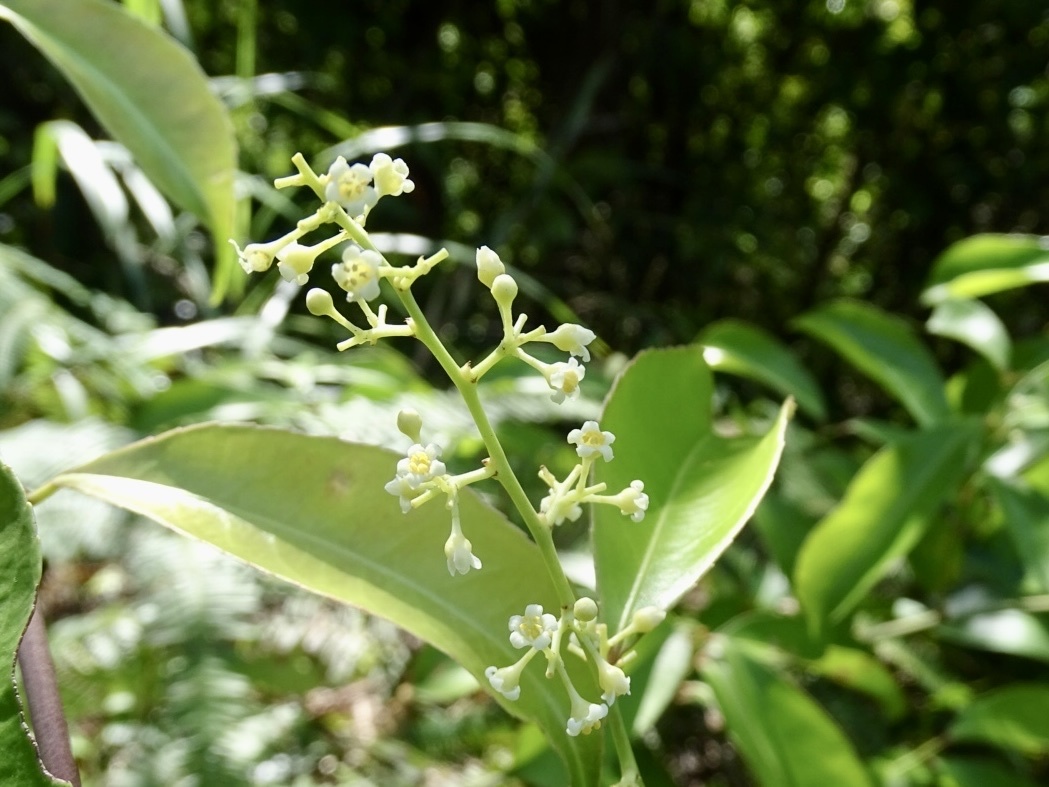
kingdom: Plantae
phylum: Tracheophyta
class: Magnoliopsida
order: Celastrales
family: Celastraceae
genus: Celastrus
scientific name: Celastrus hindsii
